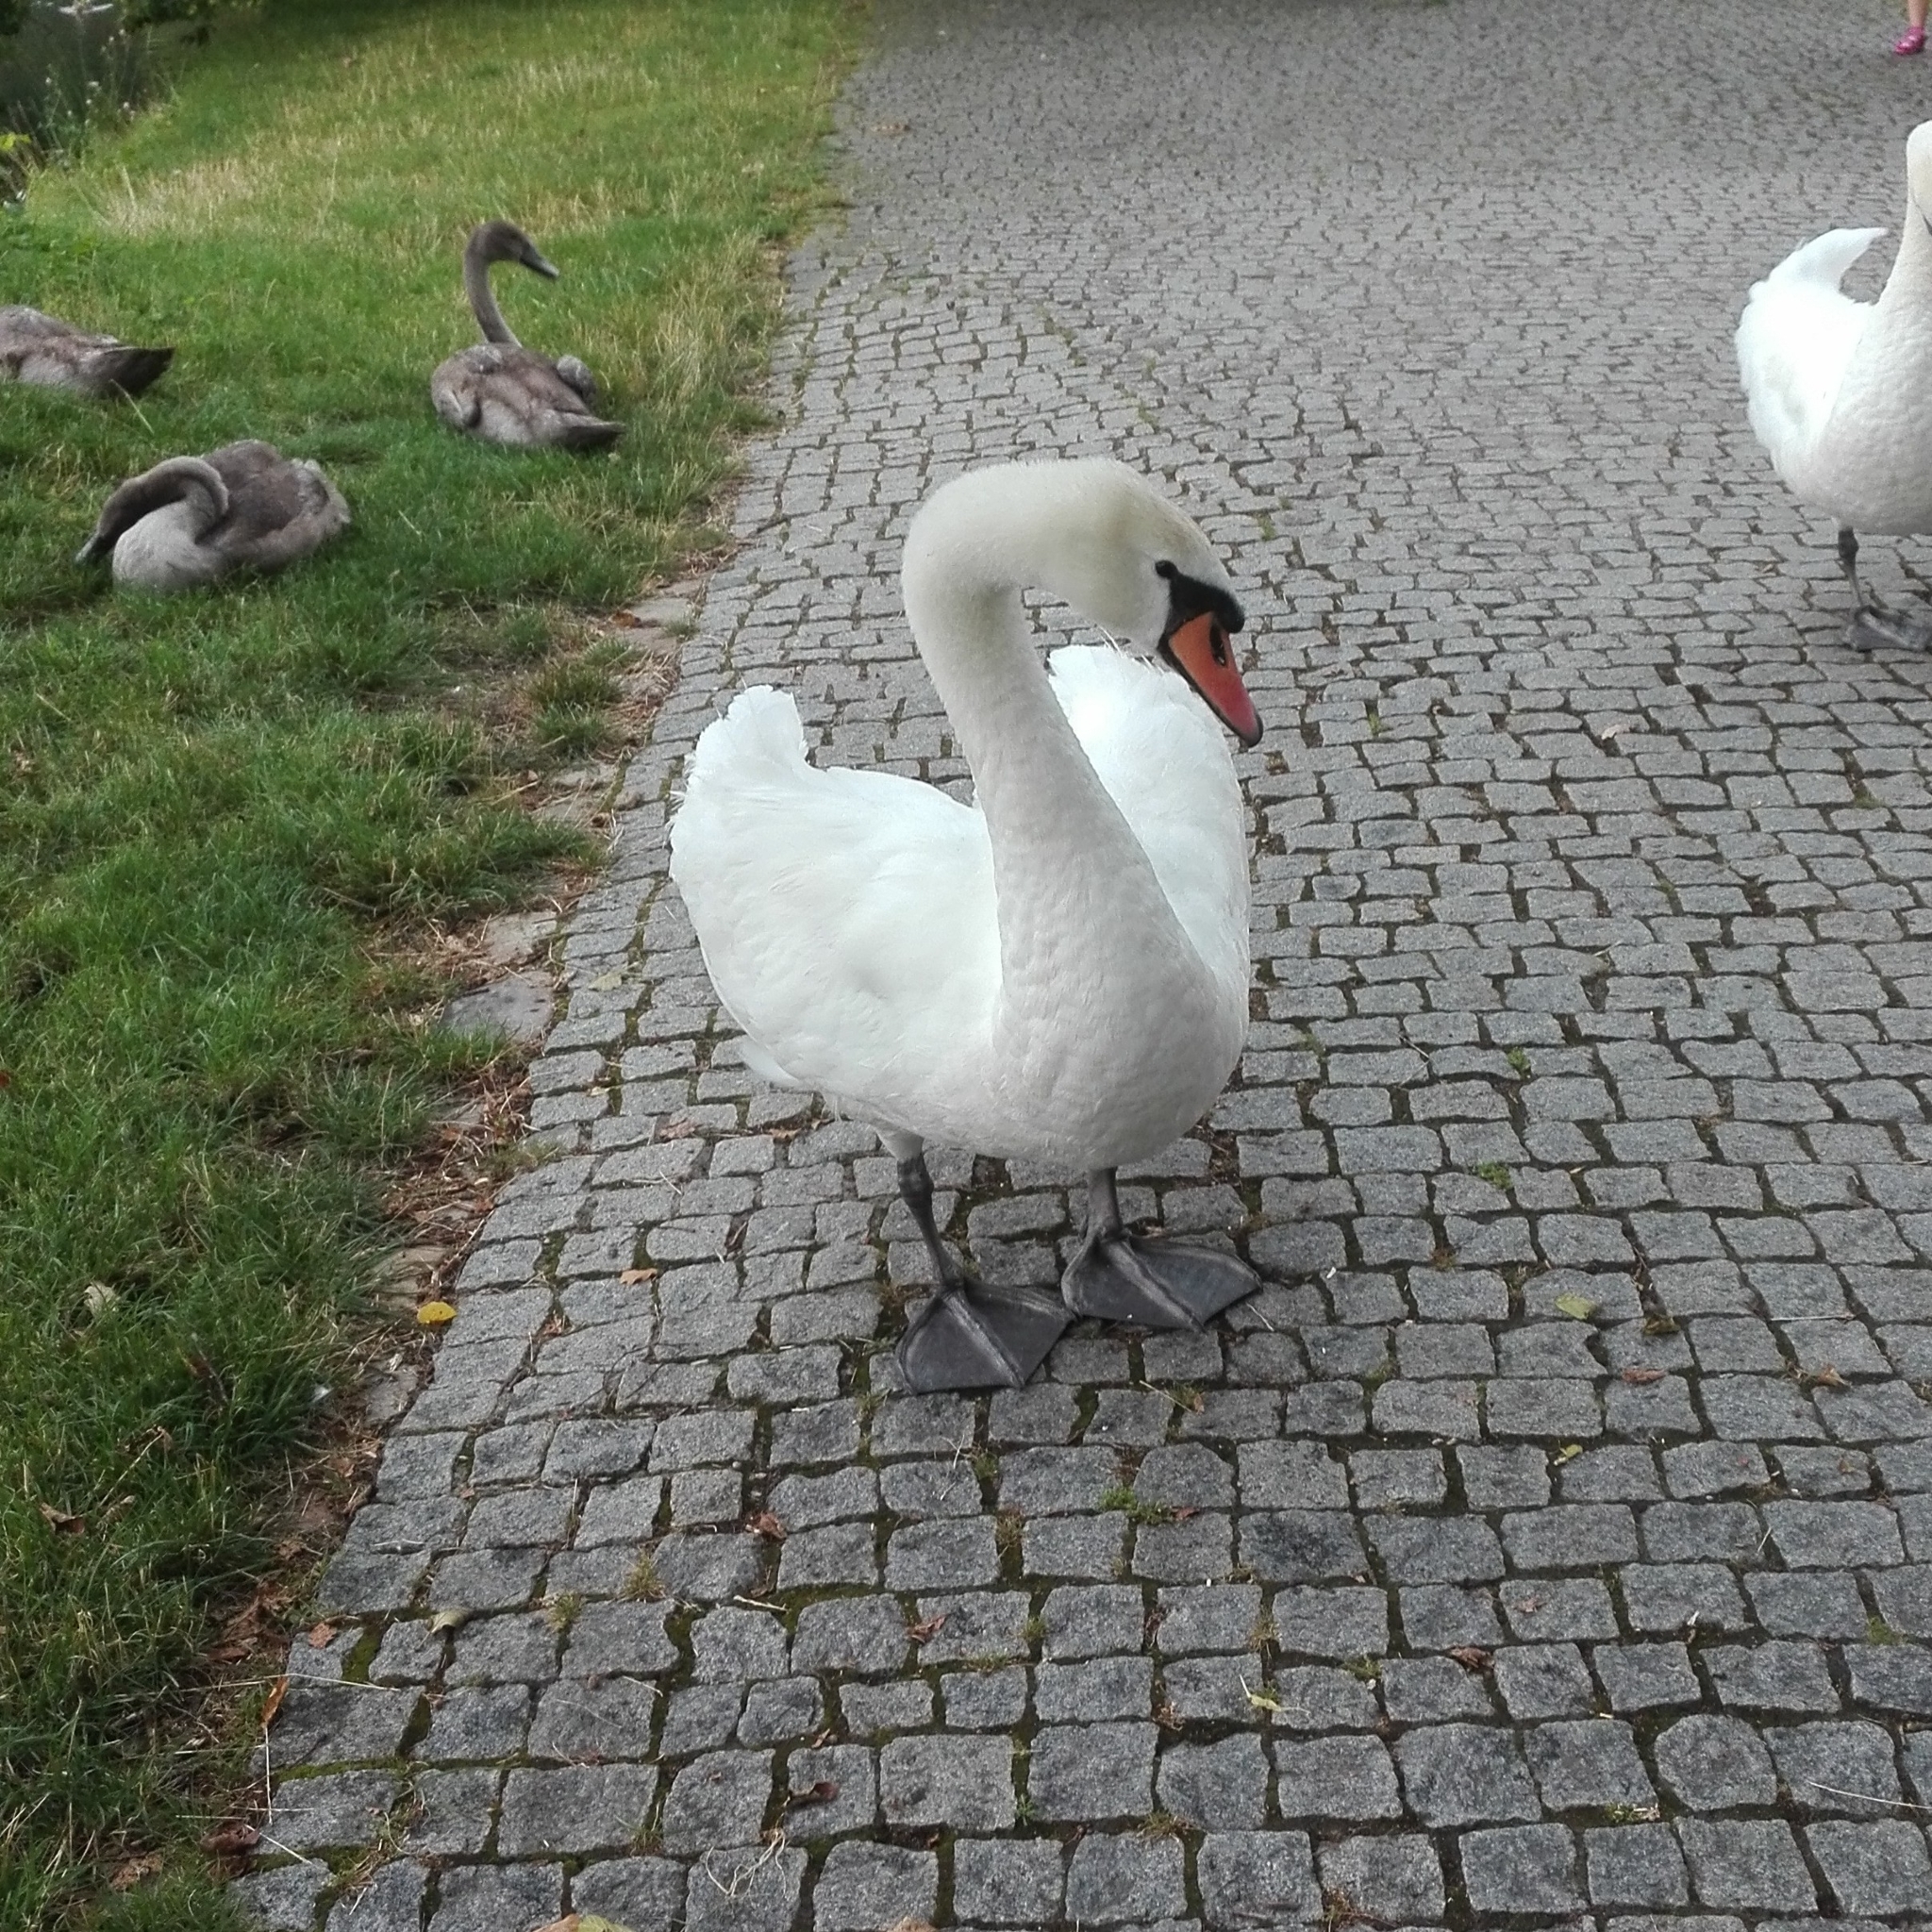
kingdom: Animalia
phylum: Chordata
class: Aves
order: Anseriformes
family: Anatidae
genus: Cygnus
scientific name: Cygnus olor
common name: Mute swan
